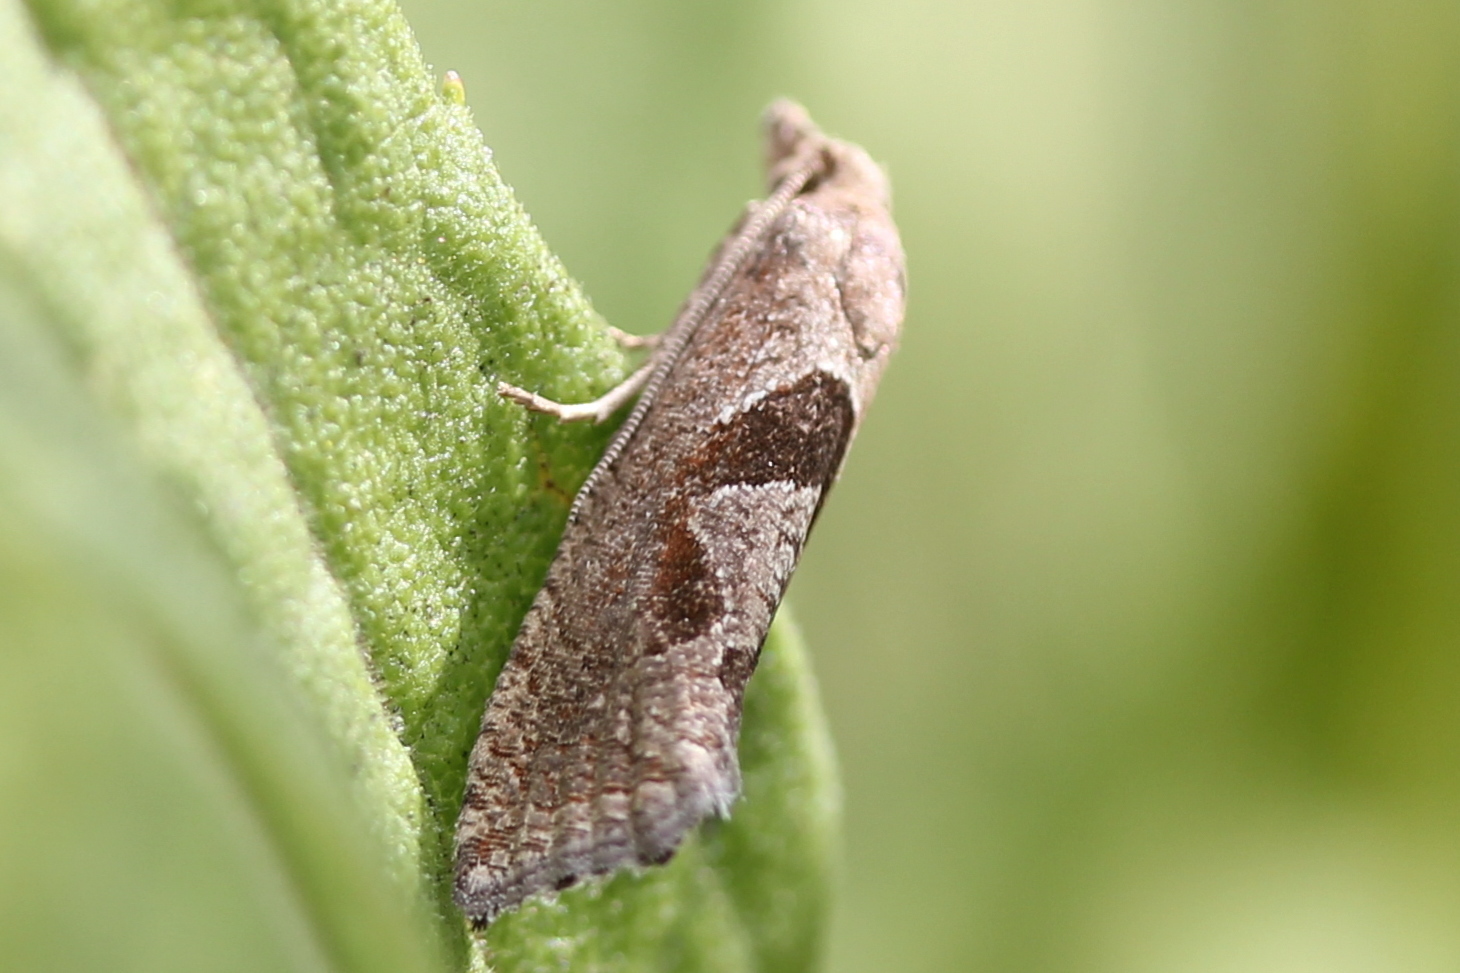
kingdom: Animalia
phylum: Arthropoda
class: Insecta
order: Lepidoptera
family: Tortricidae
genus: Pelochrista
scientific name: Pelochrista similiana
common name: Similar eucosma
